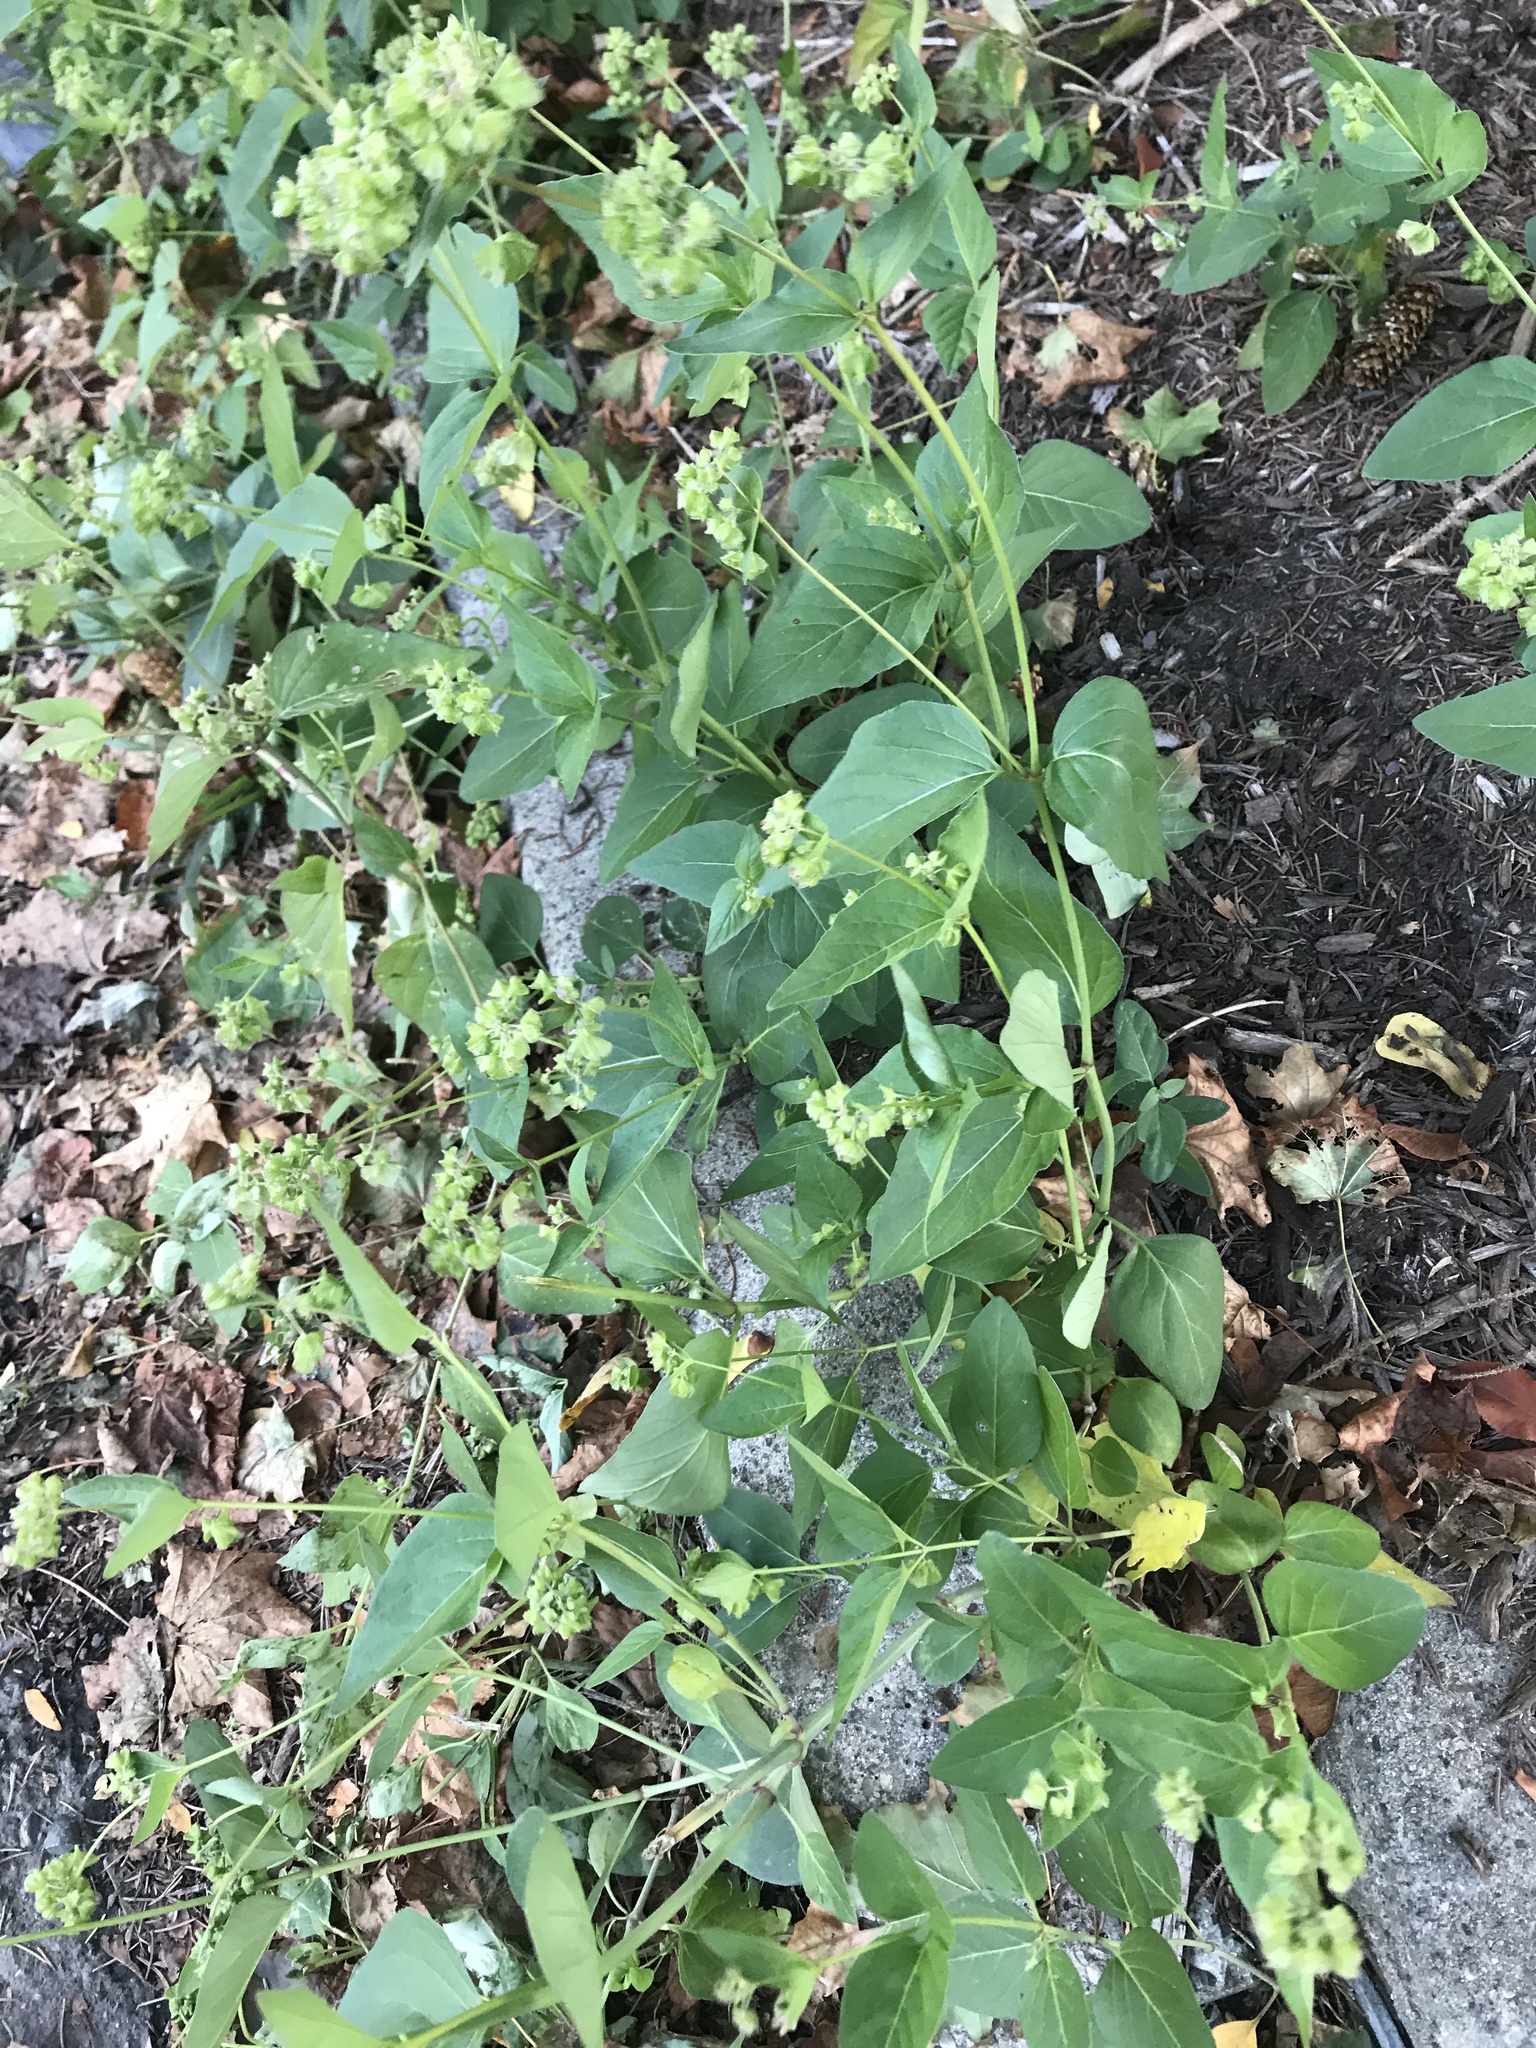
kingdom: Plantae
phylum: Tracheophyta
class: Magnoliopsida
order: Caryophyllales
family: Nyctaginaceae
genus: Mirabilis
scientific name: Mirabilis nyctaginea
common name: Umbrella wort
